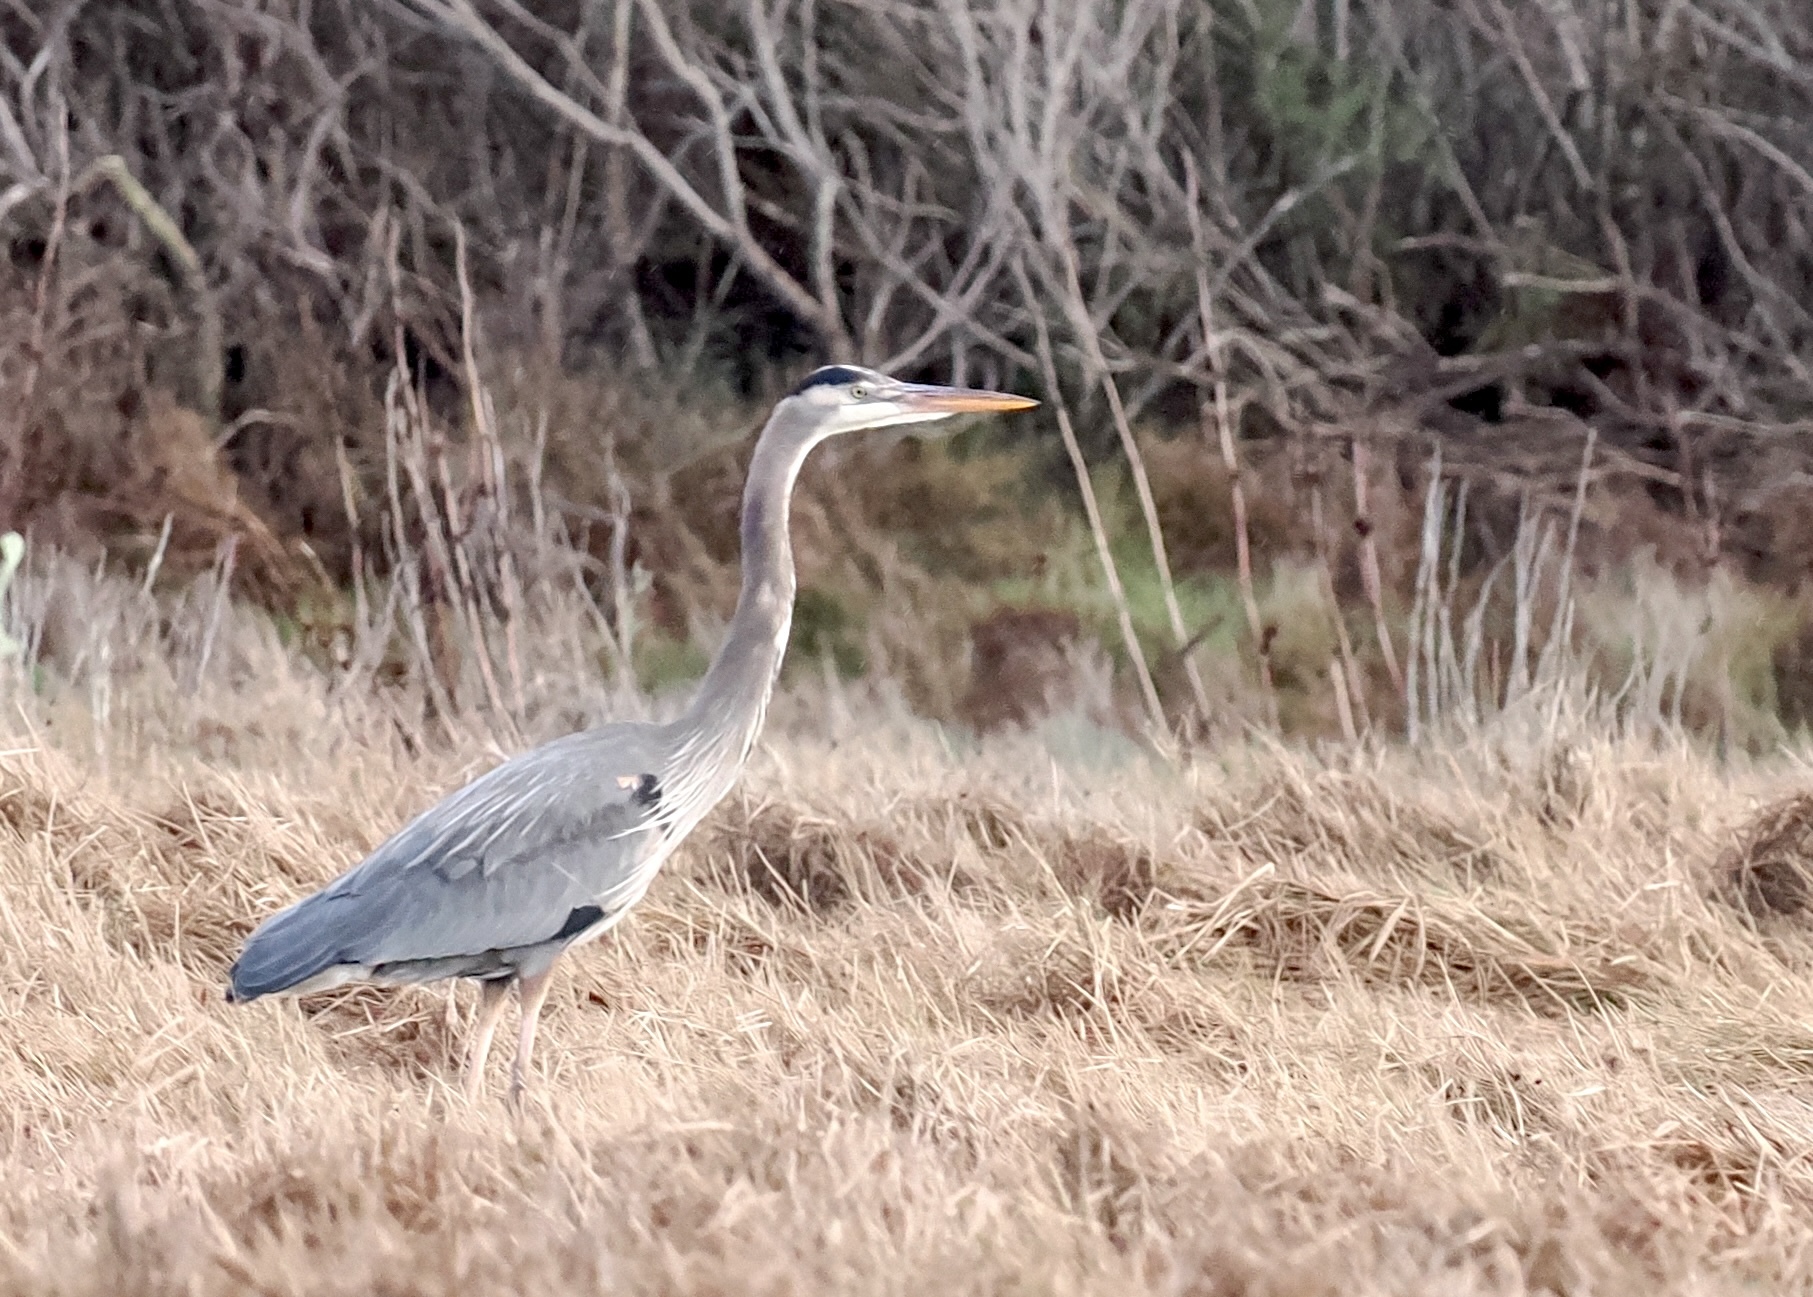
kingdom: Animalia
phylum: Chordata
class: Aves
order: Pelecaniformes
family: Ardeidae
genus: Ardea
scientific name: Ardea herodias
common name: Great blue heron
